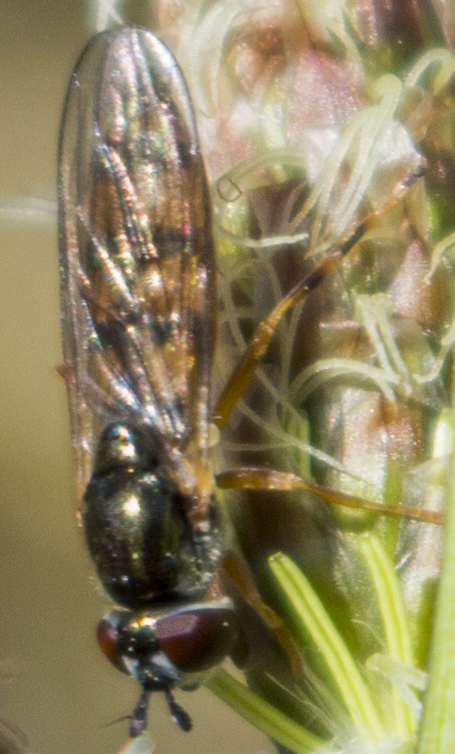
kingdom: Animalia
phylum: Arthropoda
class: Insecta
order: Diptera
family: Syrphidae
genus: Platycheirus
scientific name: Platycheirus
